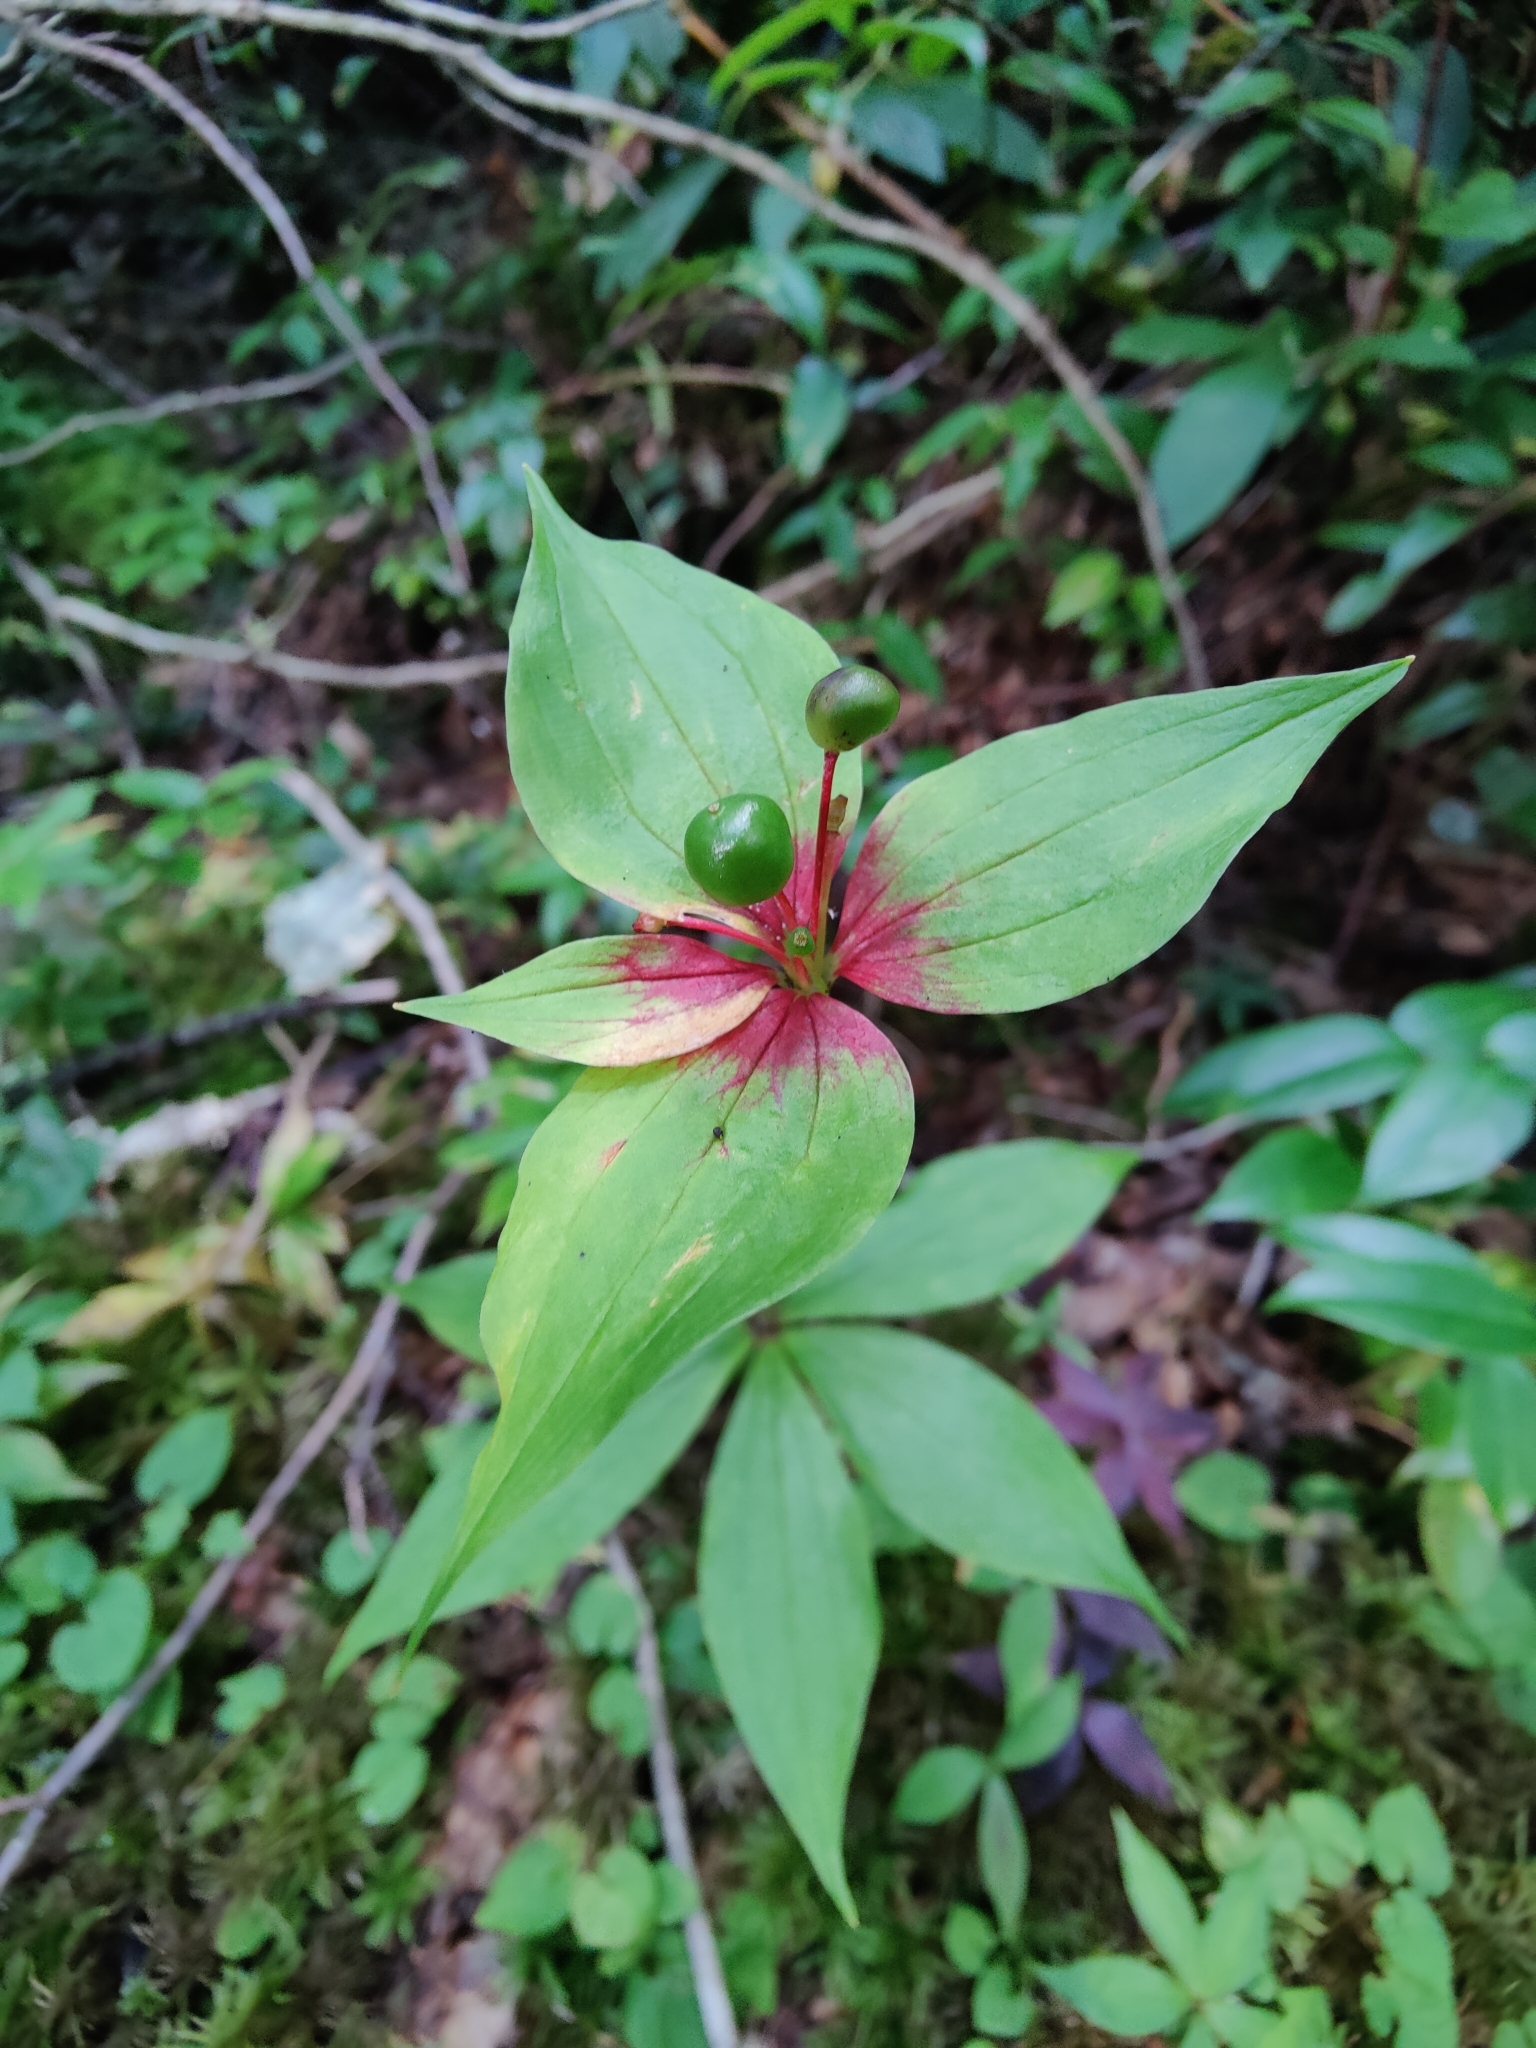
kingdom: Plantae
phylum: Tracheophyta
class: Liliopsida
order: Liliales
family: Liliaceae
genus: Medeola
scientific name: Medeola virginiana
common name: Indian cucumber-root
